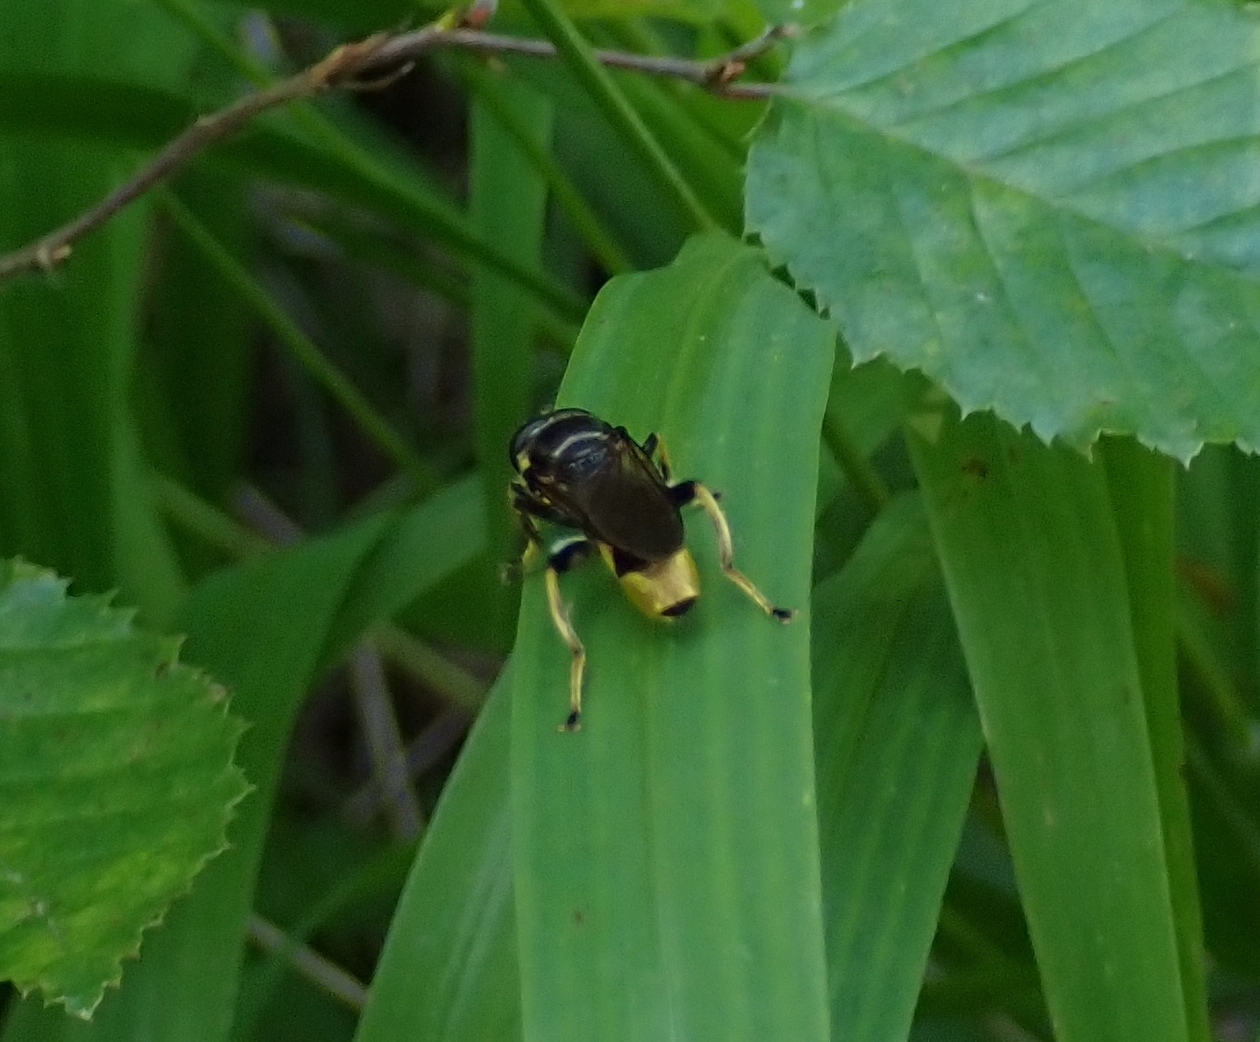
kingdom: Animalia
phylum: Arthropoda
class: Insecta
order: Diptera
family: Syrphidae
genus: Xylota
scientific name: Xylota sylvarum
